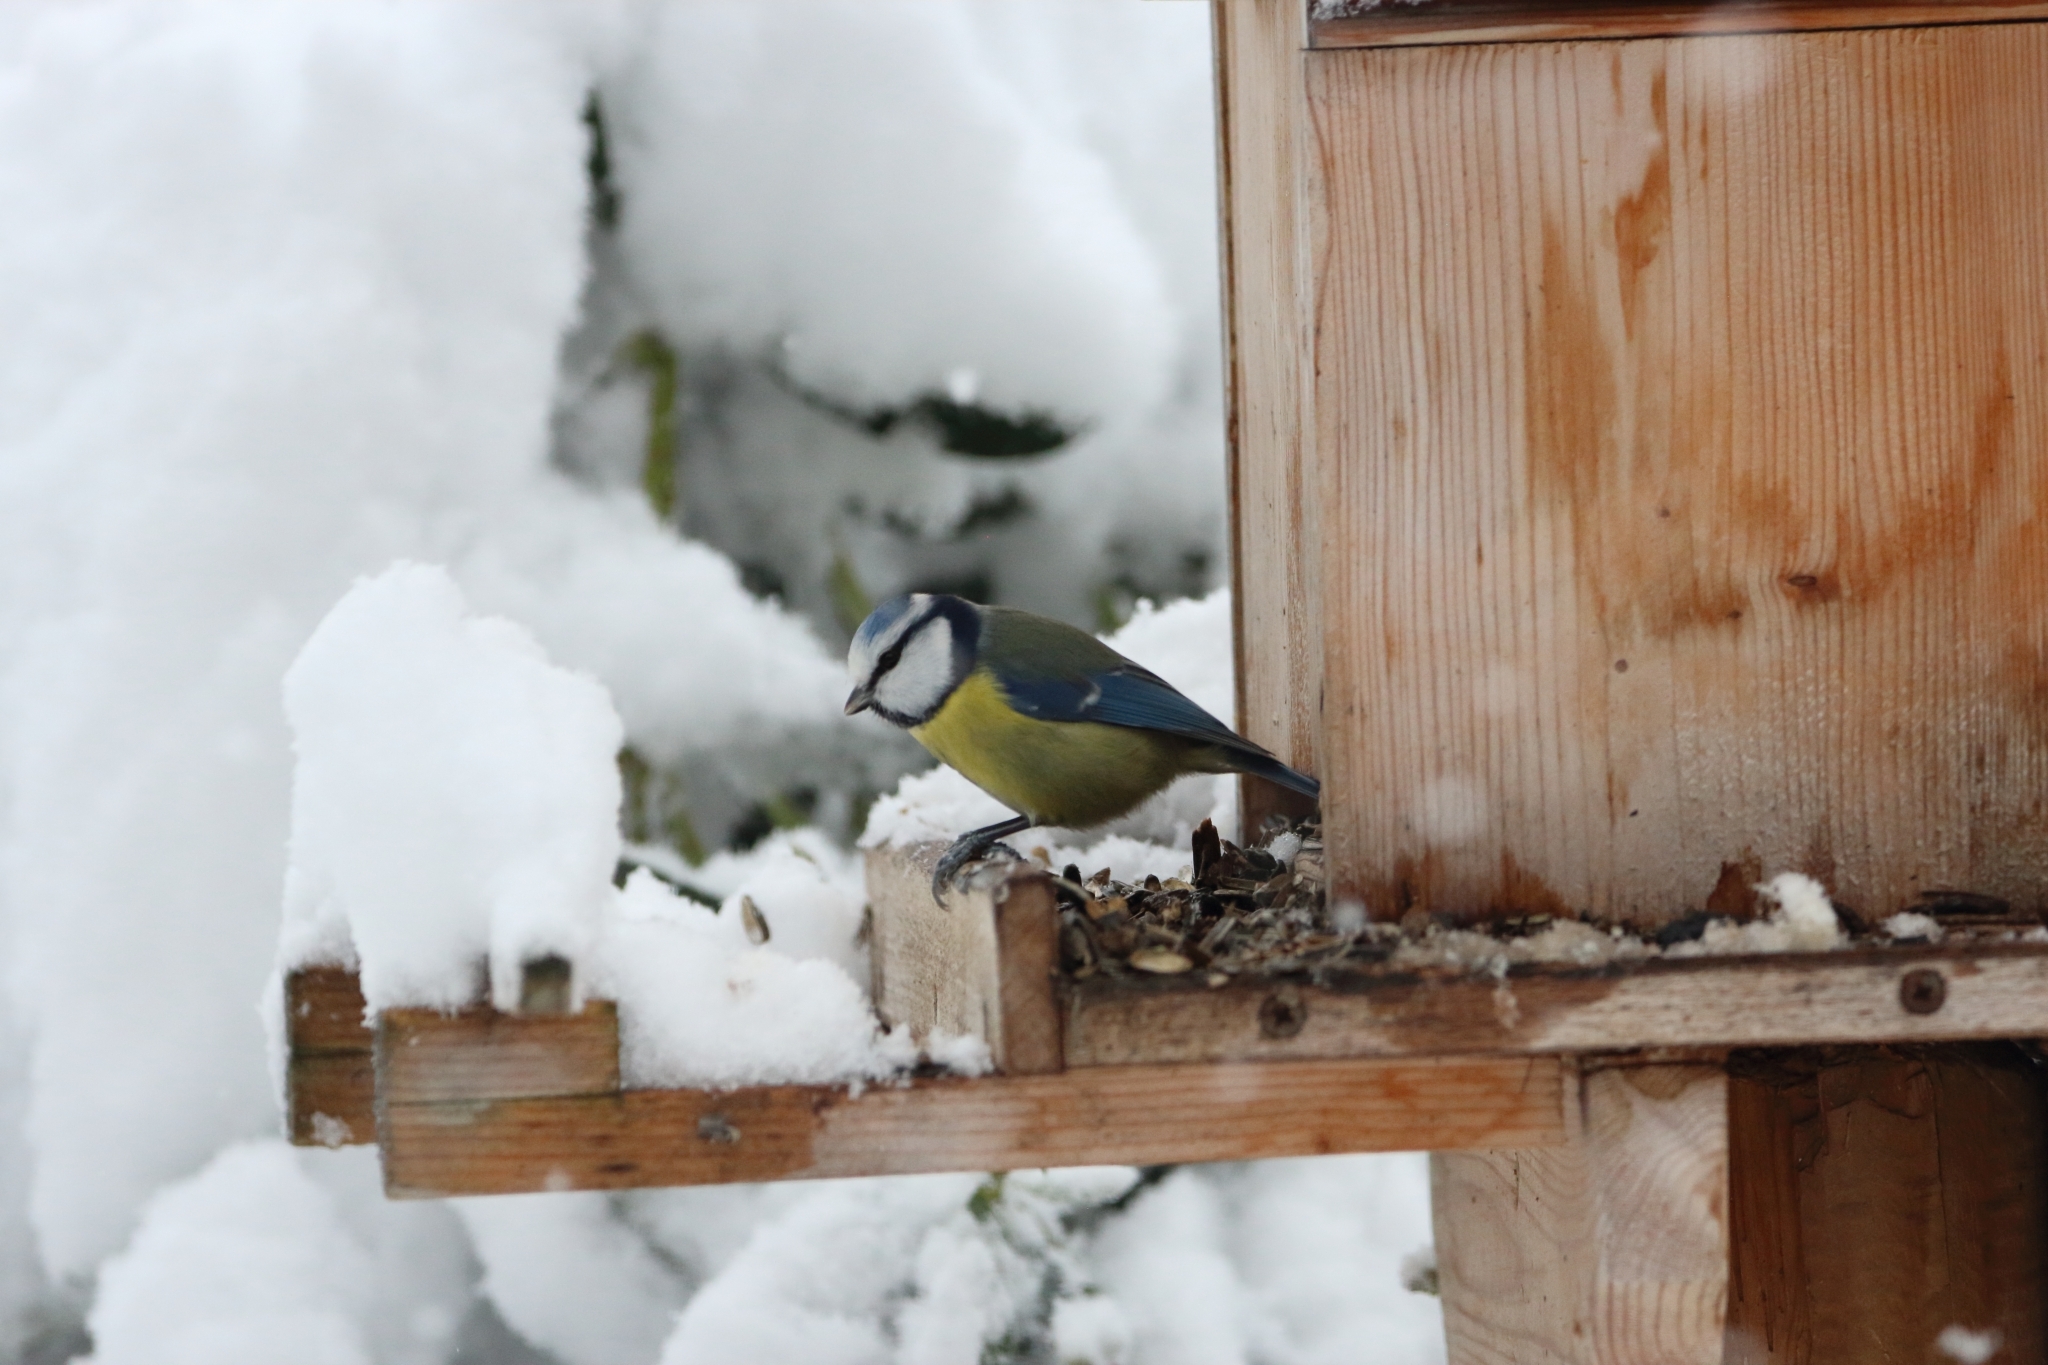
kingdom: Animalia
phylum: Chordata
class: Aves
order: Passeriformes
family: Paridae
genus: Cyanistes
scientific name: Cyanistes caeruleus
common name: Eurasian blue tit
